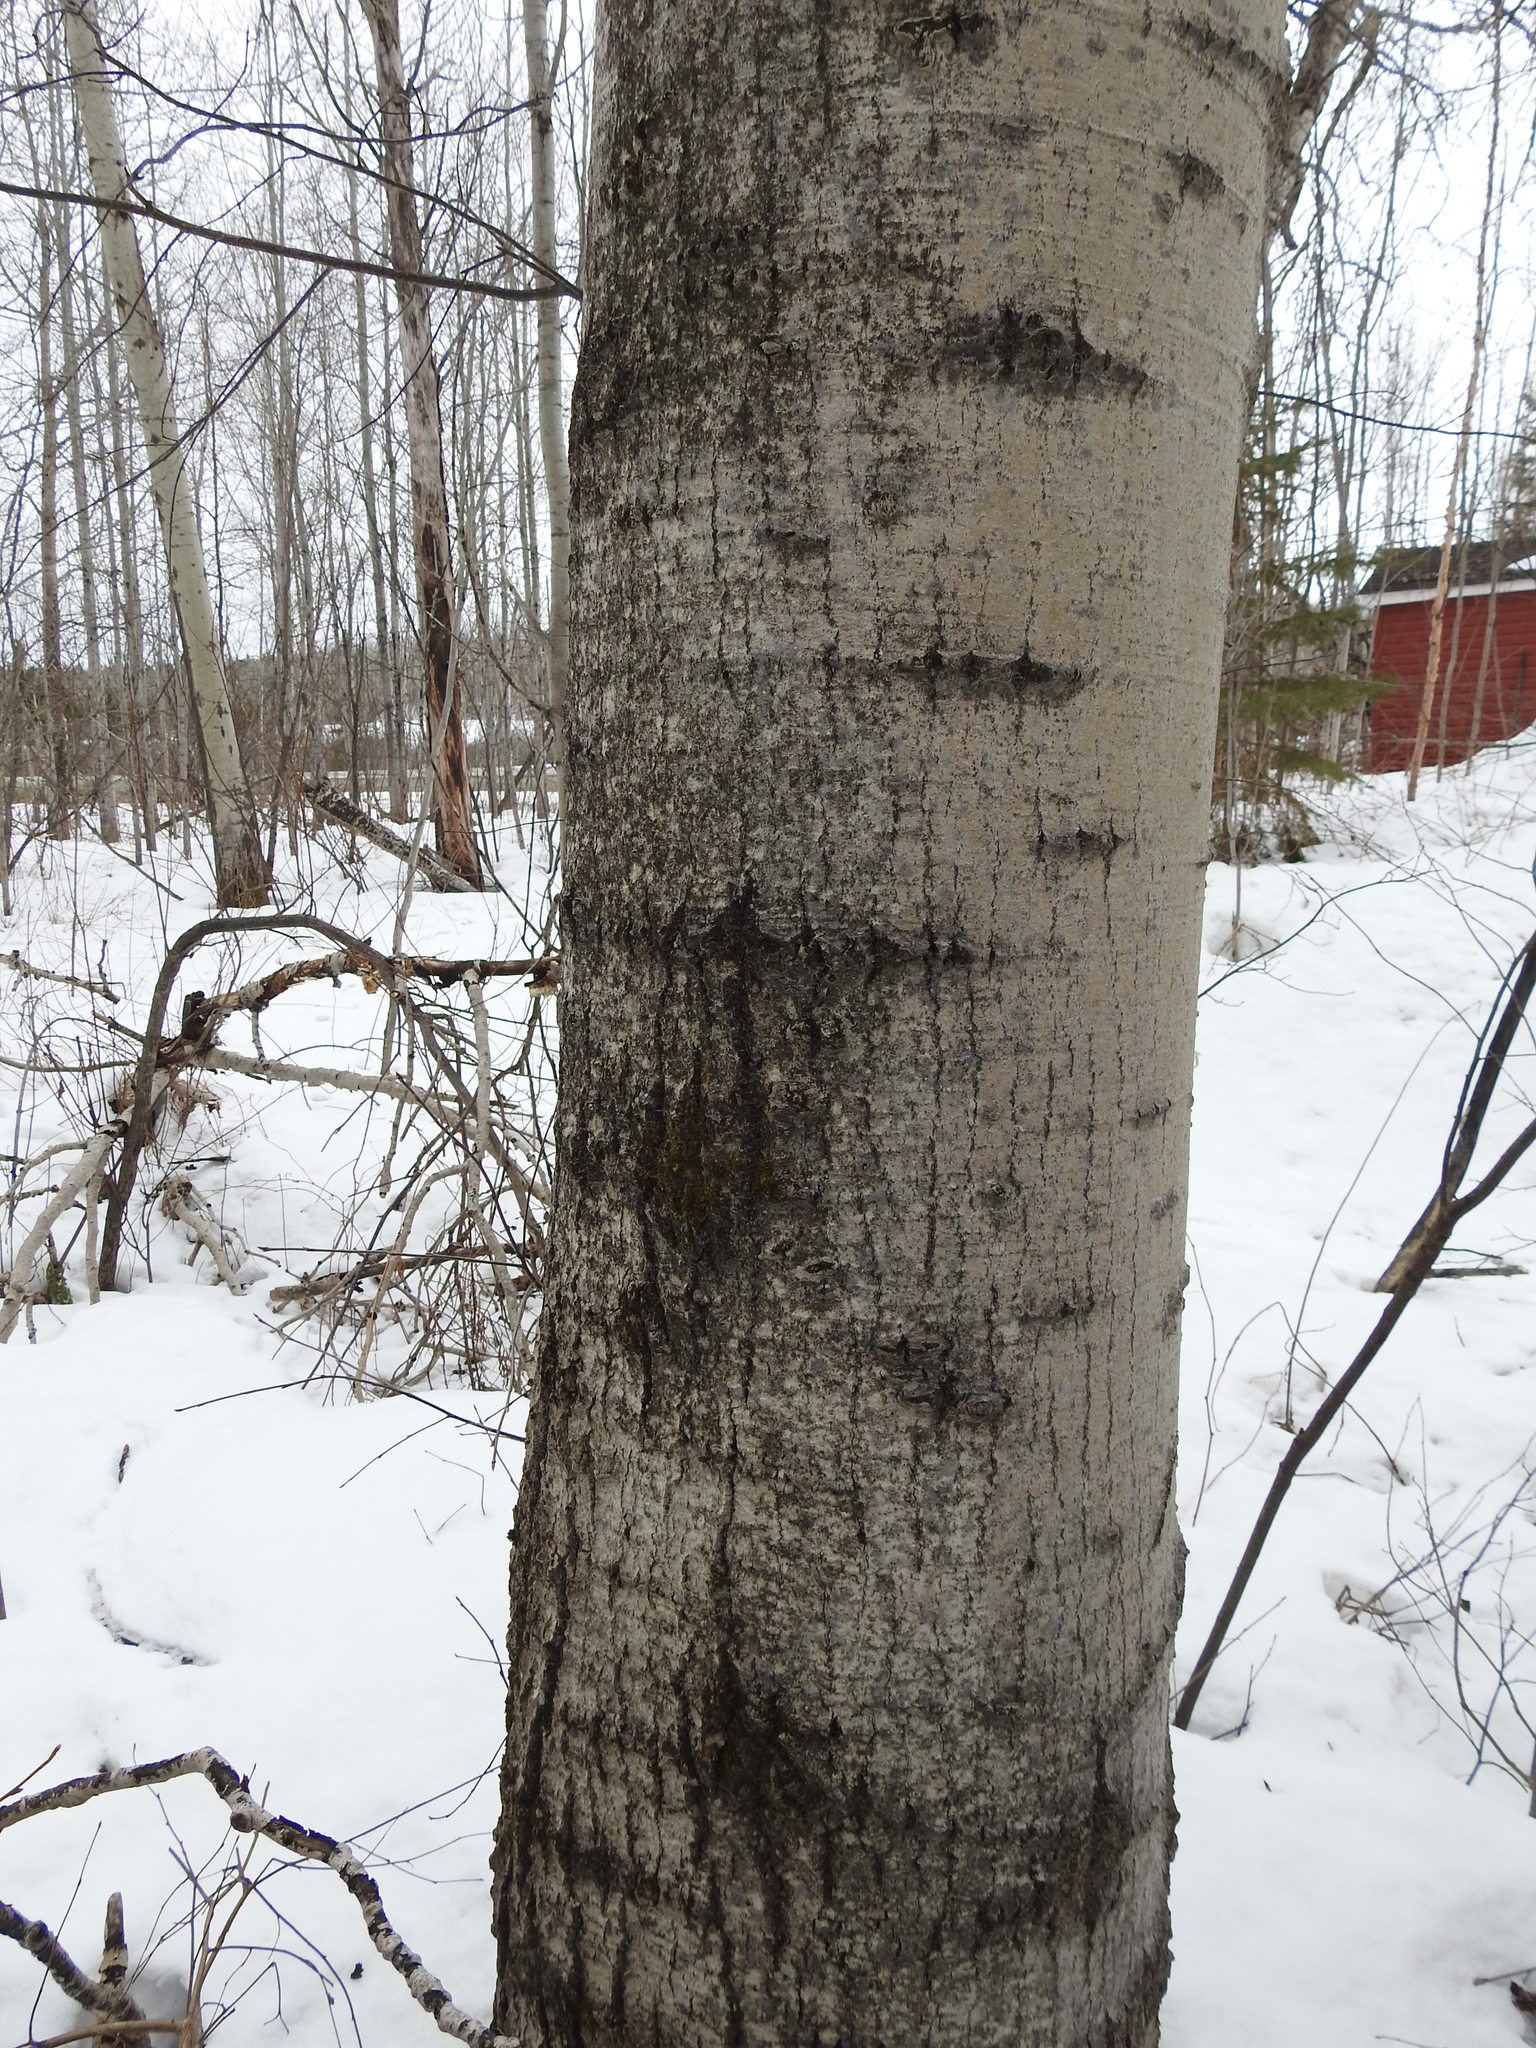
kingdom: Plantae
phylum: Tracheophyta
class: Magnoliopsida
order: Malpighiales
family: Salicaceae
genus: Populus
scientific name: Populus tremuloides
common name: Quaking aspen
